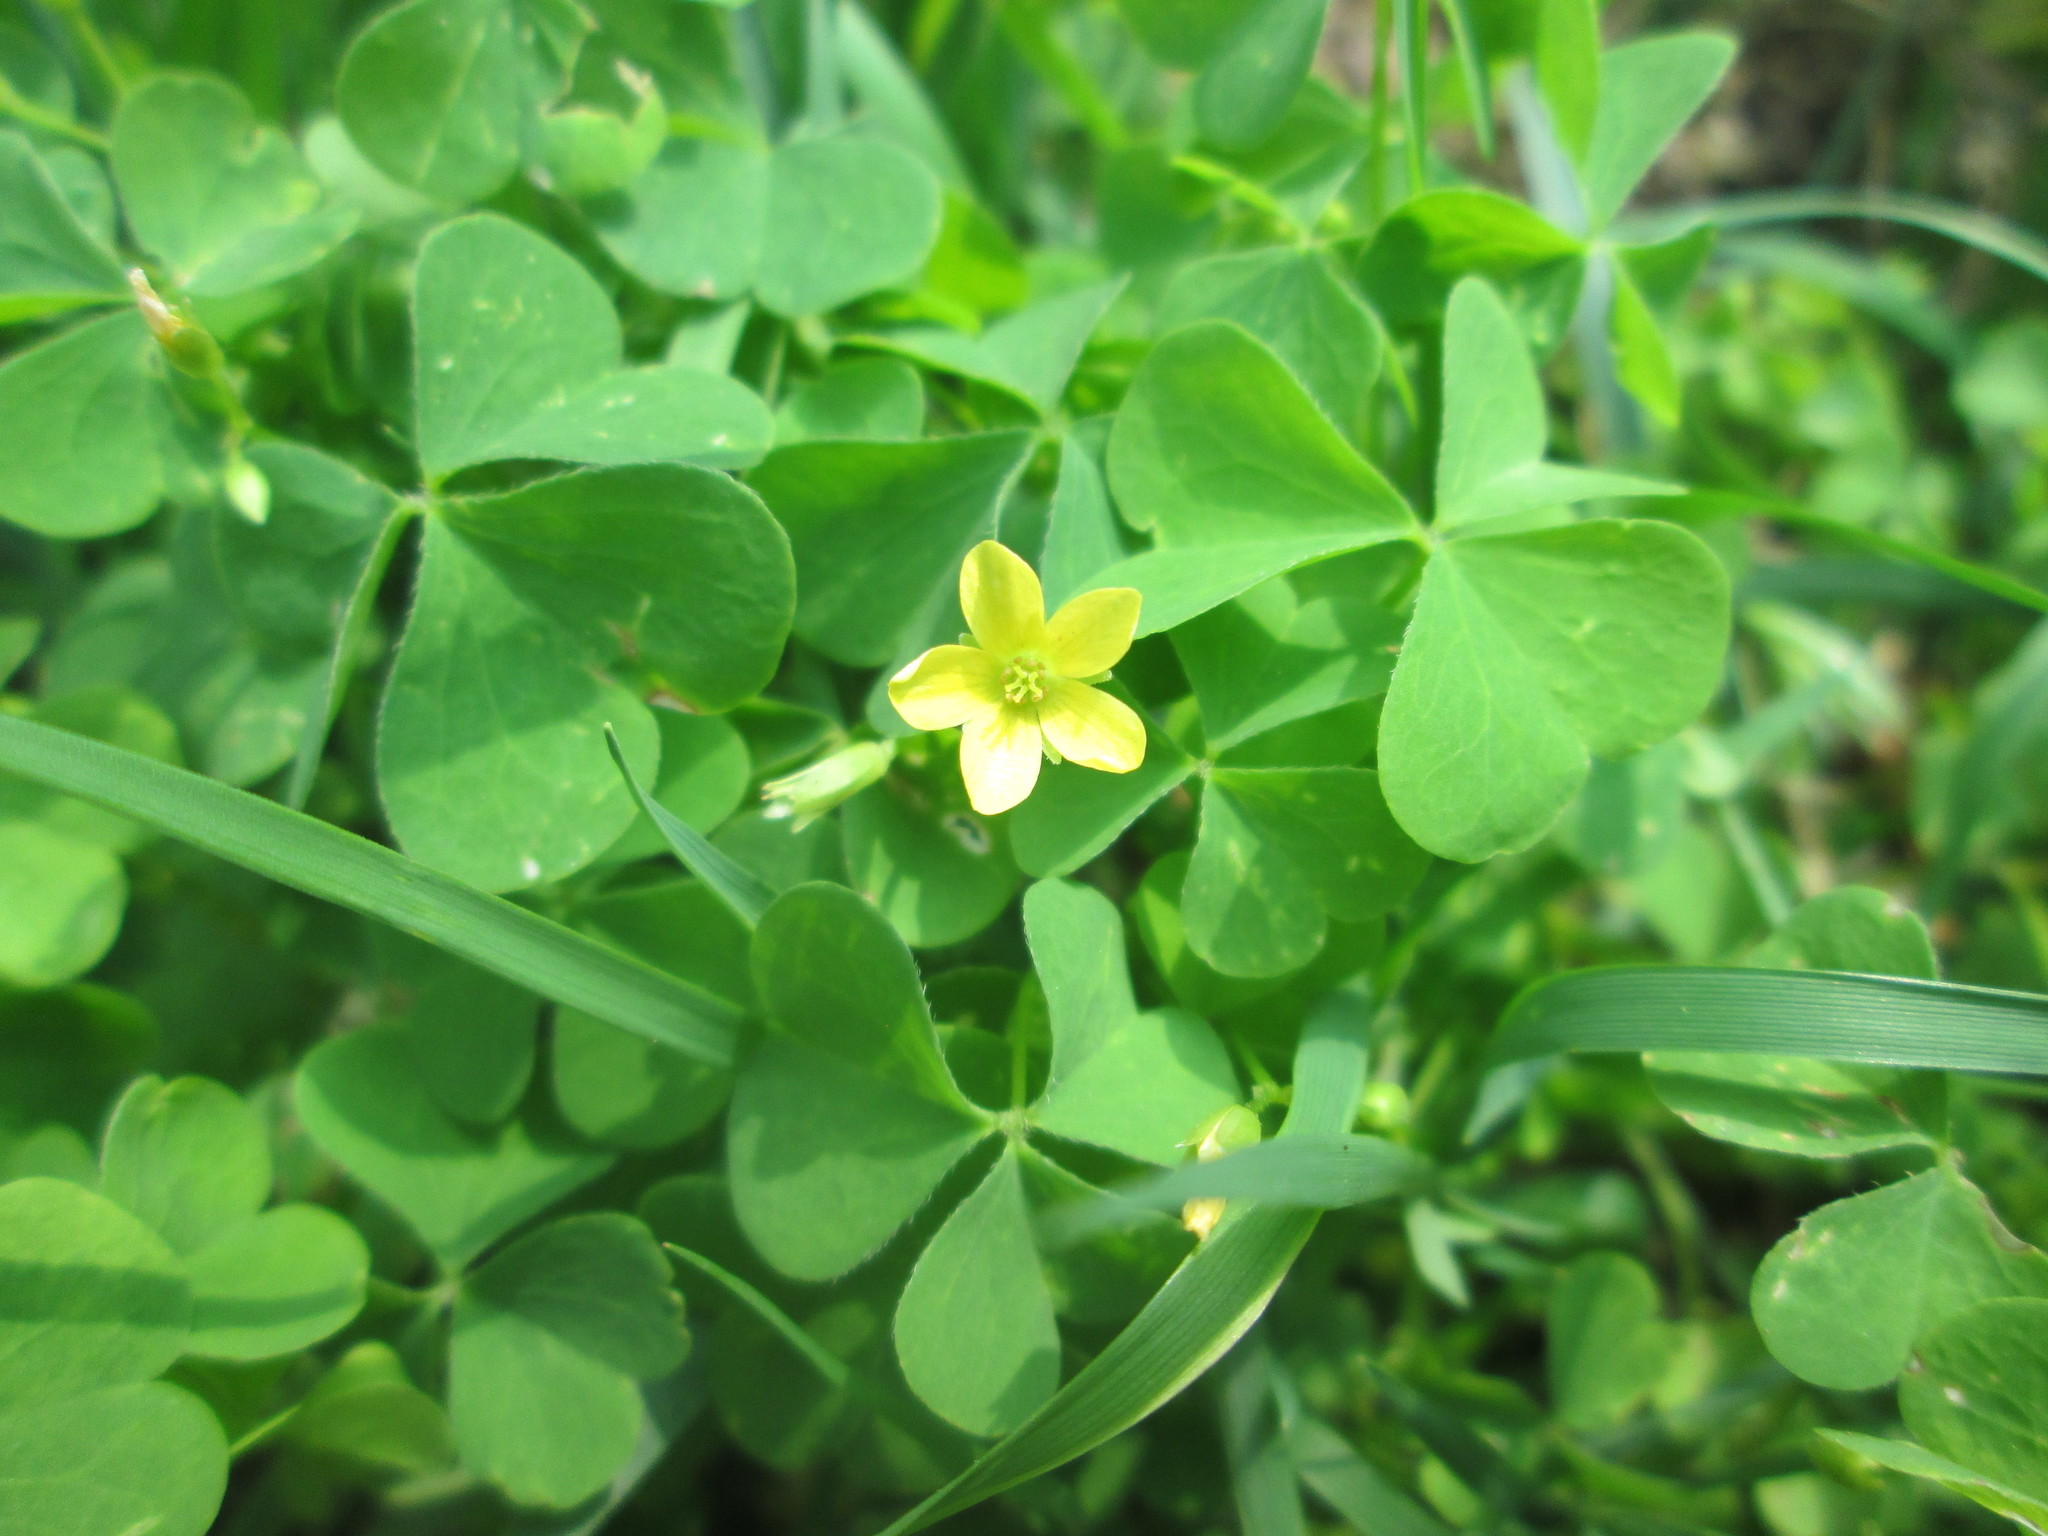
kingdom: Plantae
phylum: Tracheophyta
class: Magnoliopsida
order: Oxalidales
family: Oxalidaceae
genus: Oxalis
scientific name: Oxalis stricta
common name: Upright yellow-sorrel
